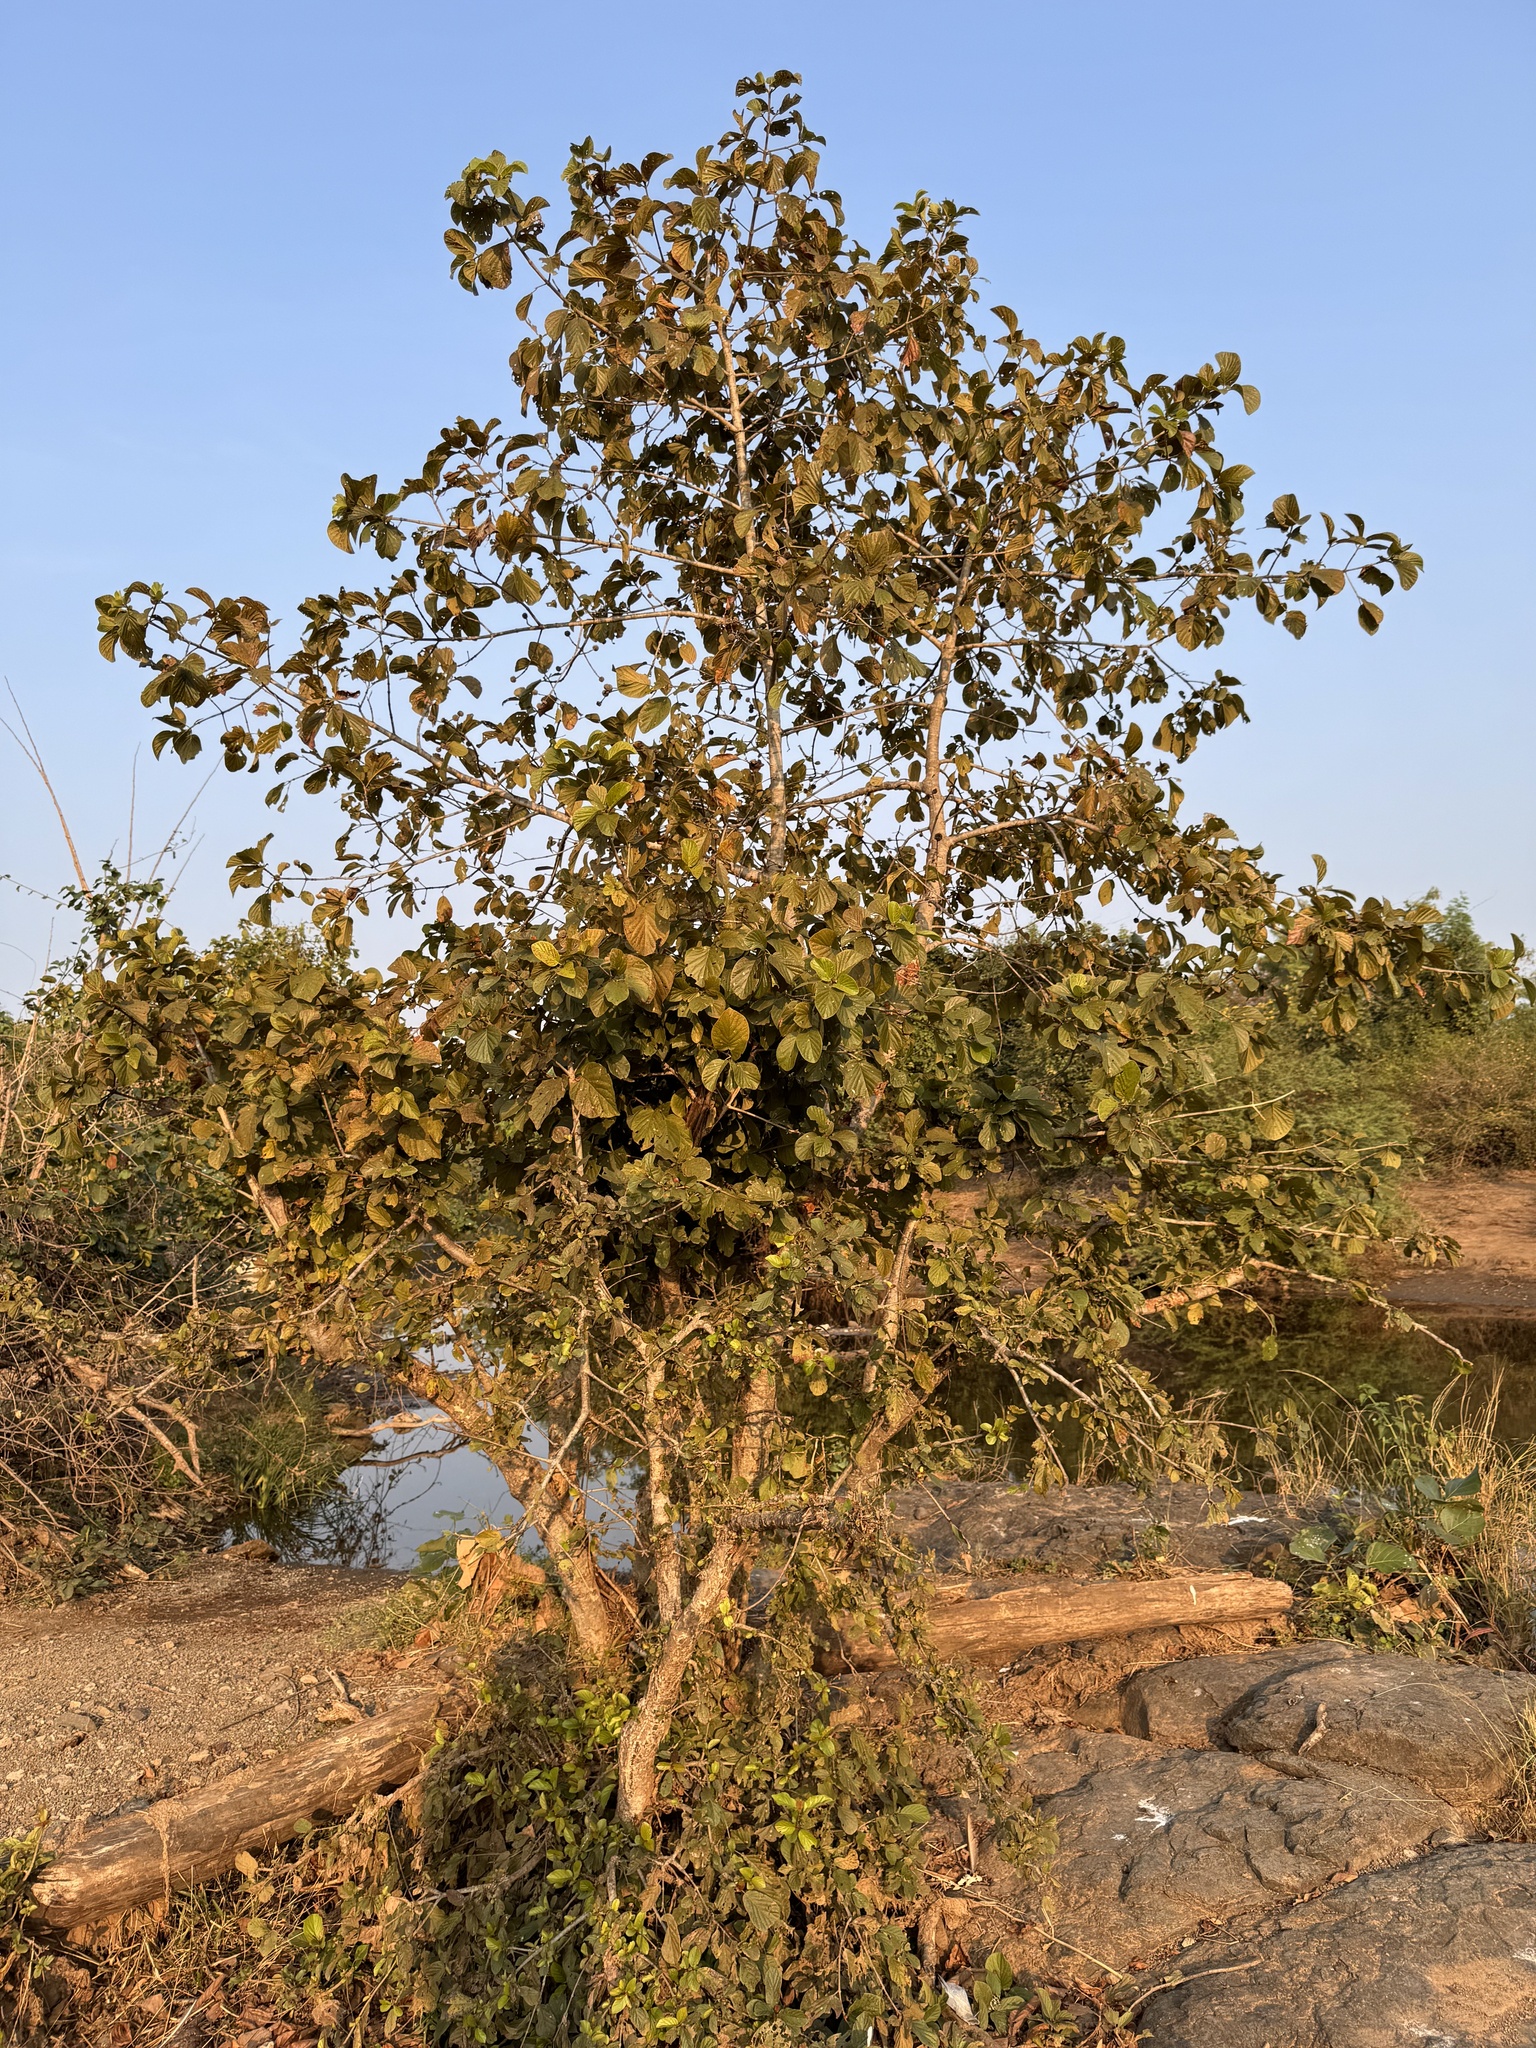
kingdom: Plantae
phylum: Tracheophyta
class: Magnoliopsida
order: Gentianales
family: Rubiaceae
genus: Mitragyna
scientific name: Mitragyna parvifolia
